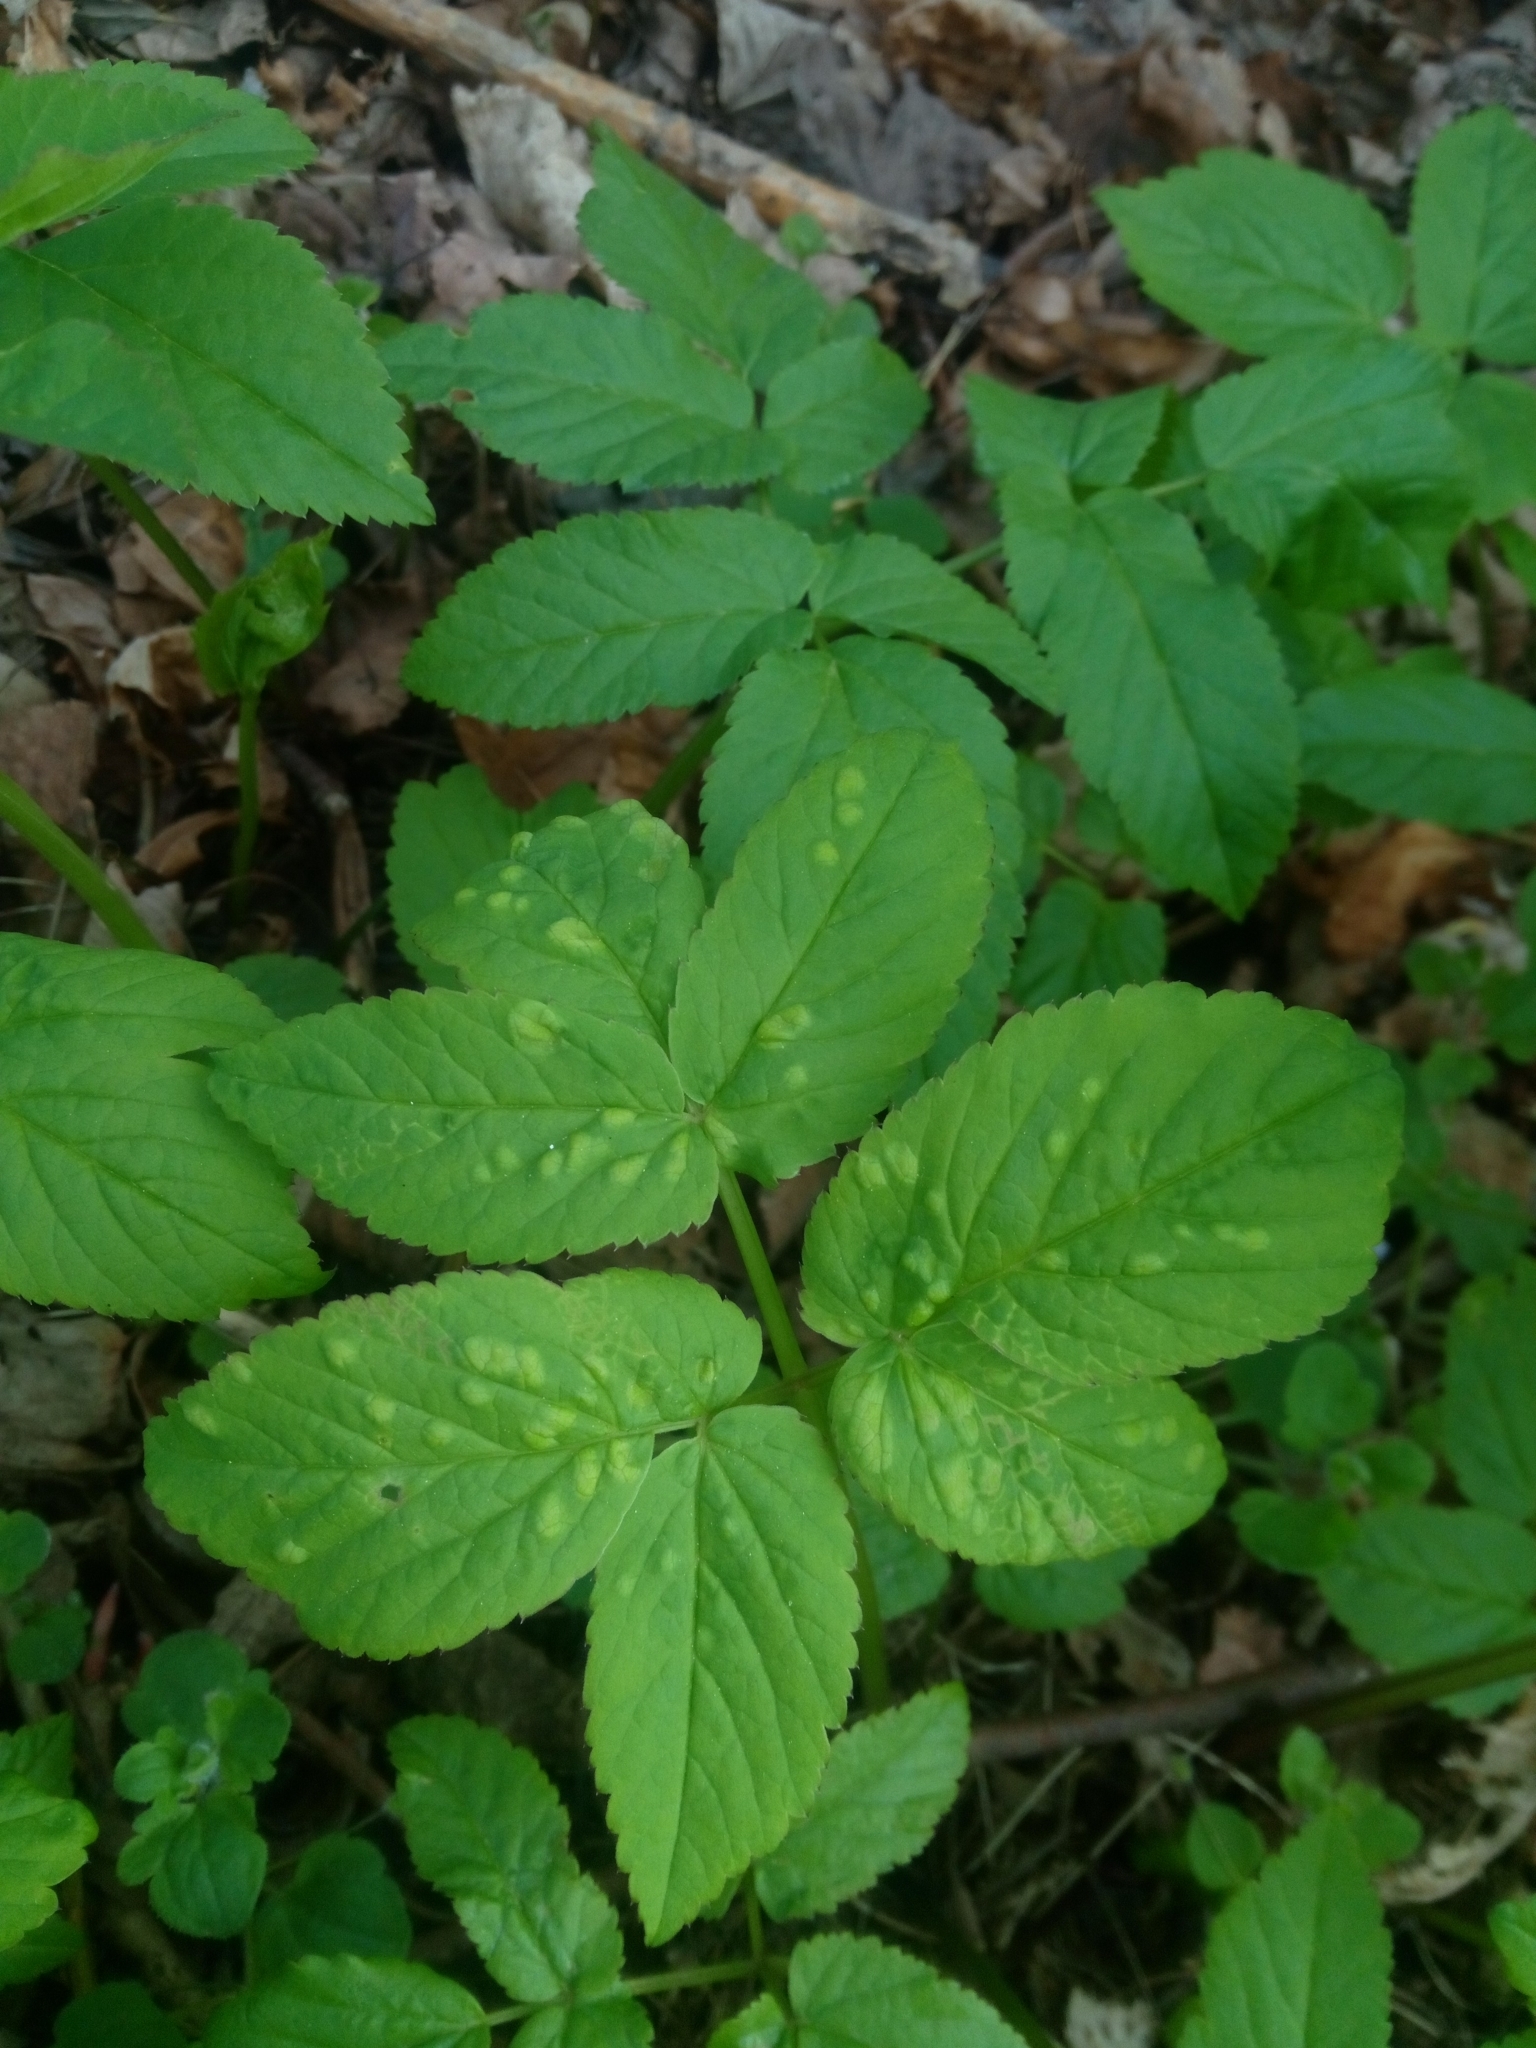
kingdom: Animalia
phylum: Arthropoda
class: Insecta
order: Hemiptera
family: Triozidae
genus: Trioza
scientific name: Trioza flavipennis
